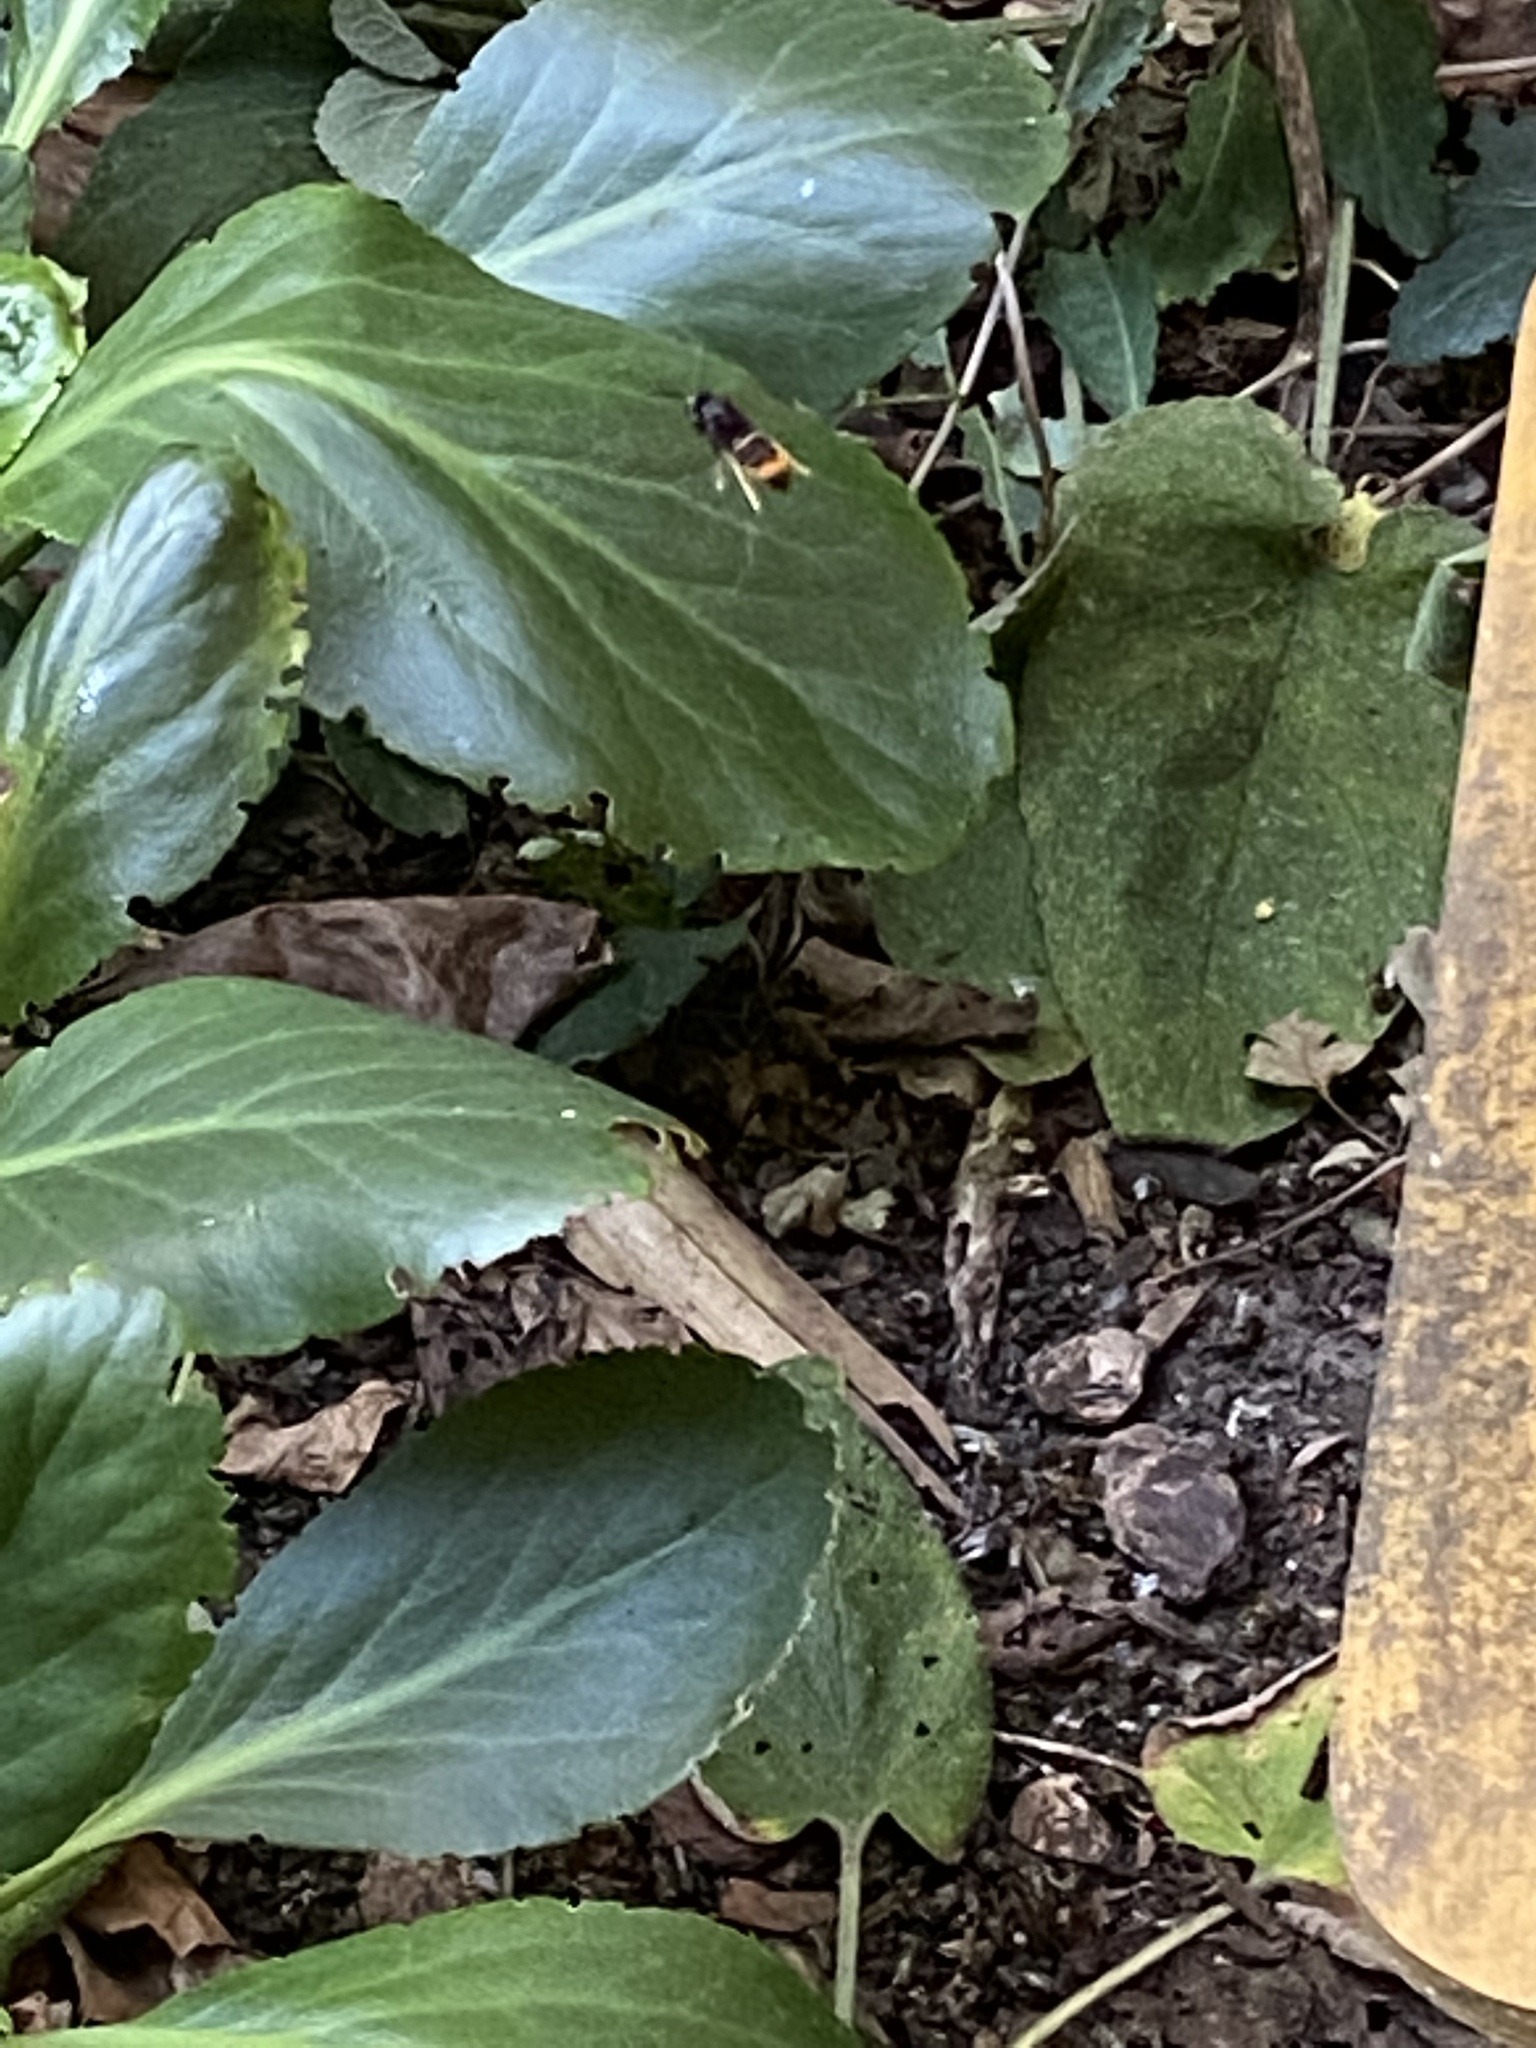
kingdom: Animalia
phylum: Arthropoda
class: Insecta
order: Hymenoptera
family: Vespidae
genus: Vespa
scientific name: Vespa velutina
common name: Asian hornet
